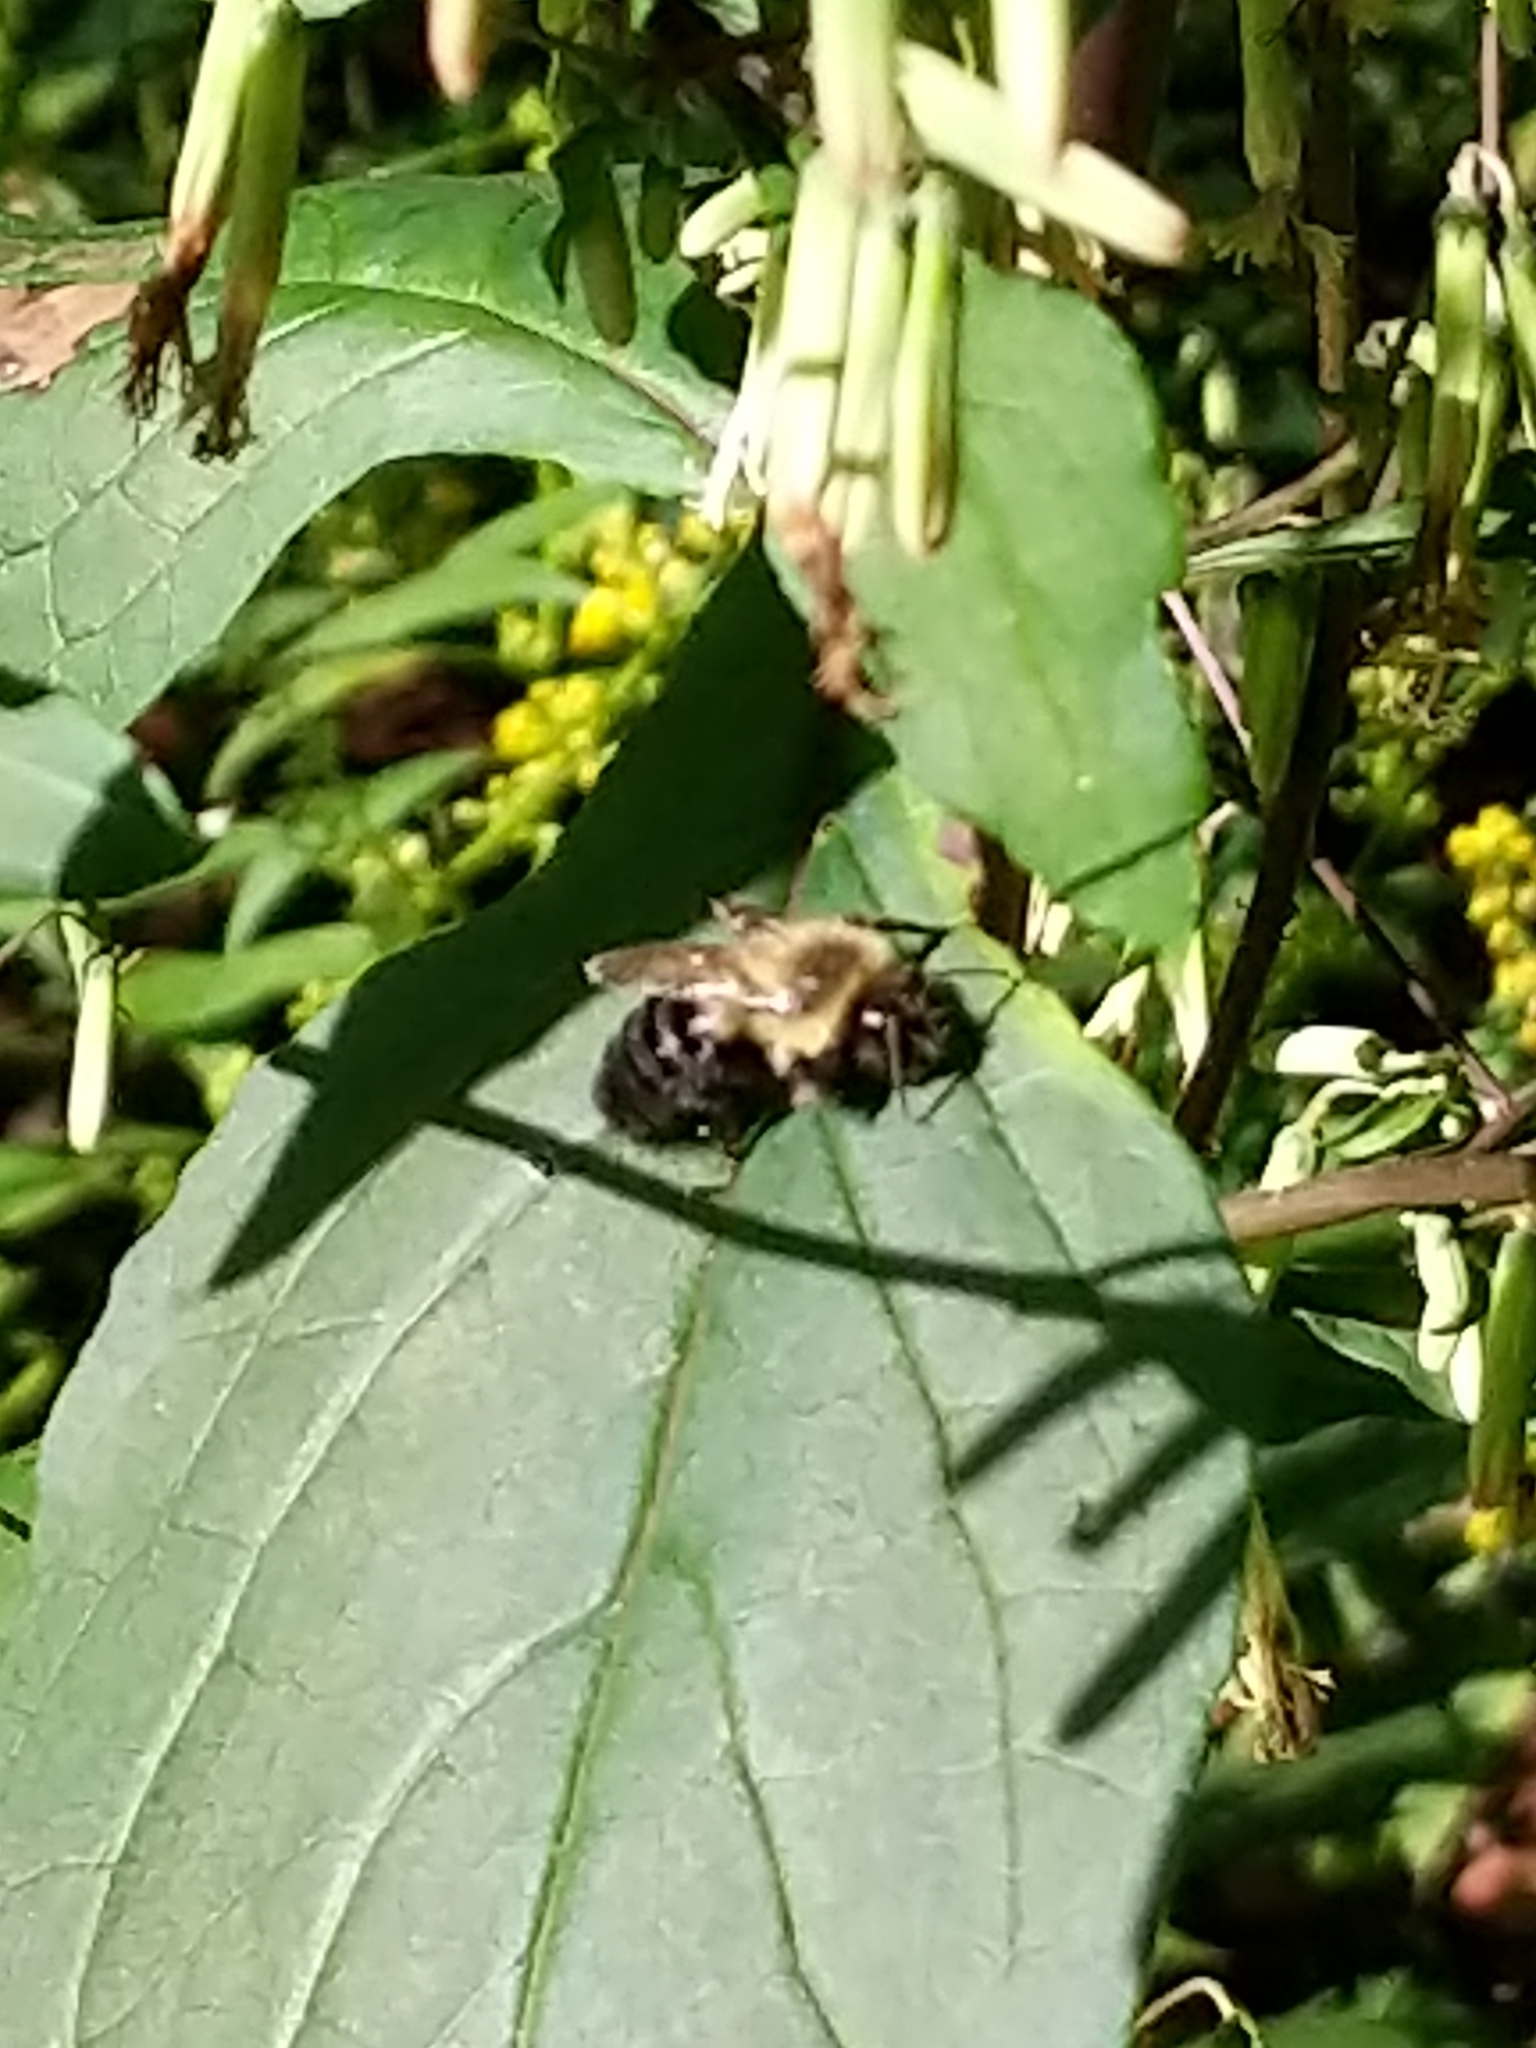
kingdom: Animalia
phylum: Arthropoda
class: Insecta
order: Hymenoptera
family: Apidae
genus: Bombus
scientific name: Bombus impatiens
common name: Common eastern bumble bee
